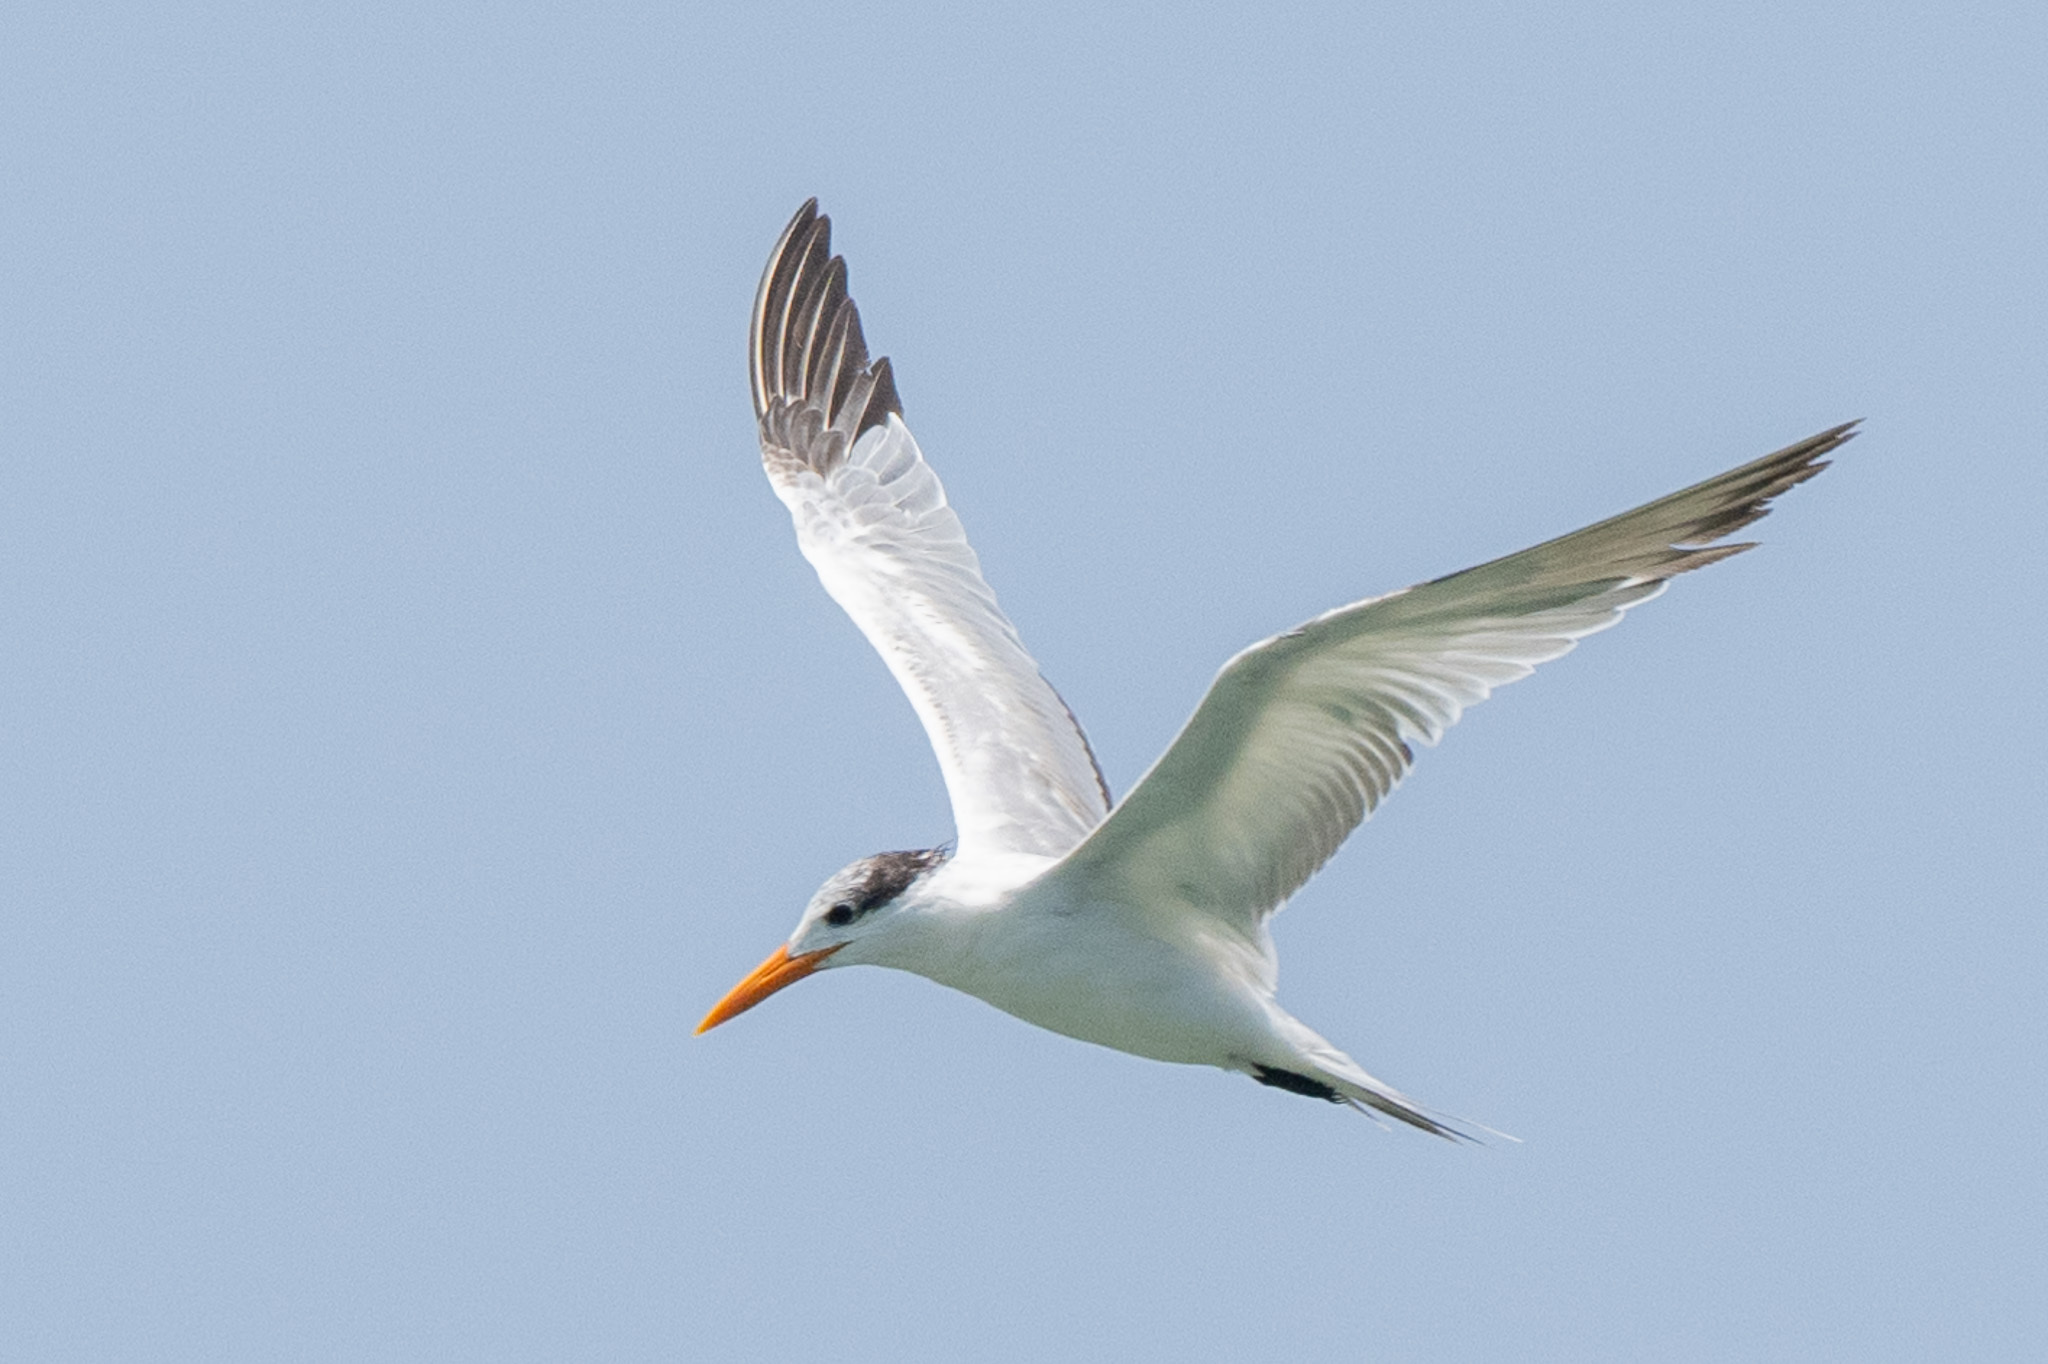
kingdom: Animalia
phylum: Chordata
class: Aves
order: Charadriiformes
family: Laridae
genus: Thalasseus
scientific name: Thalasseus maximus
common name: Royal tern
